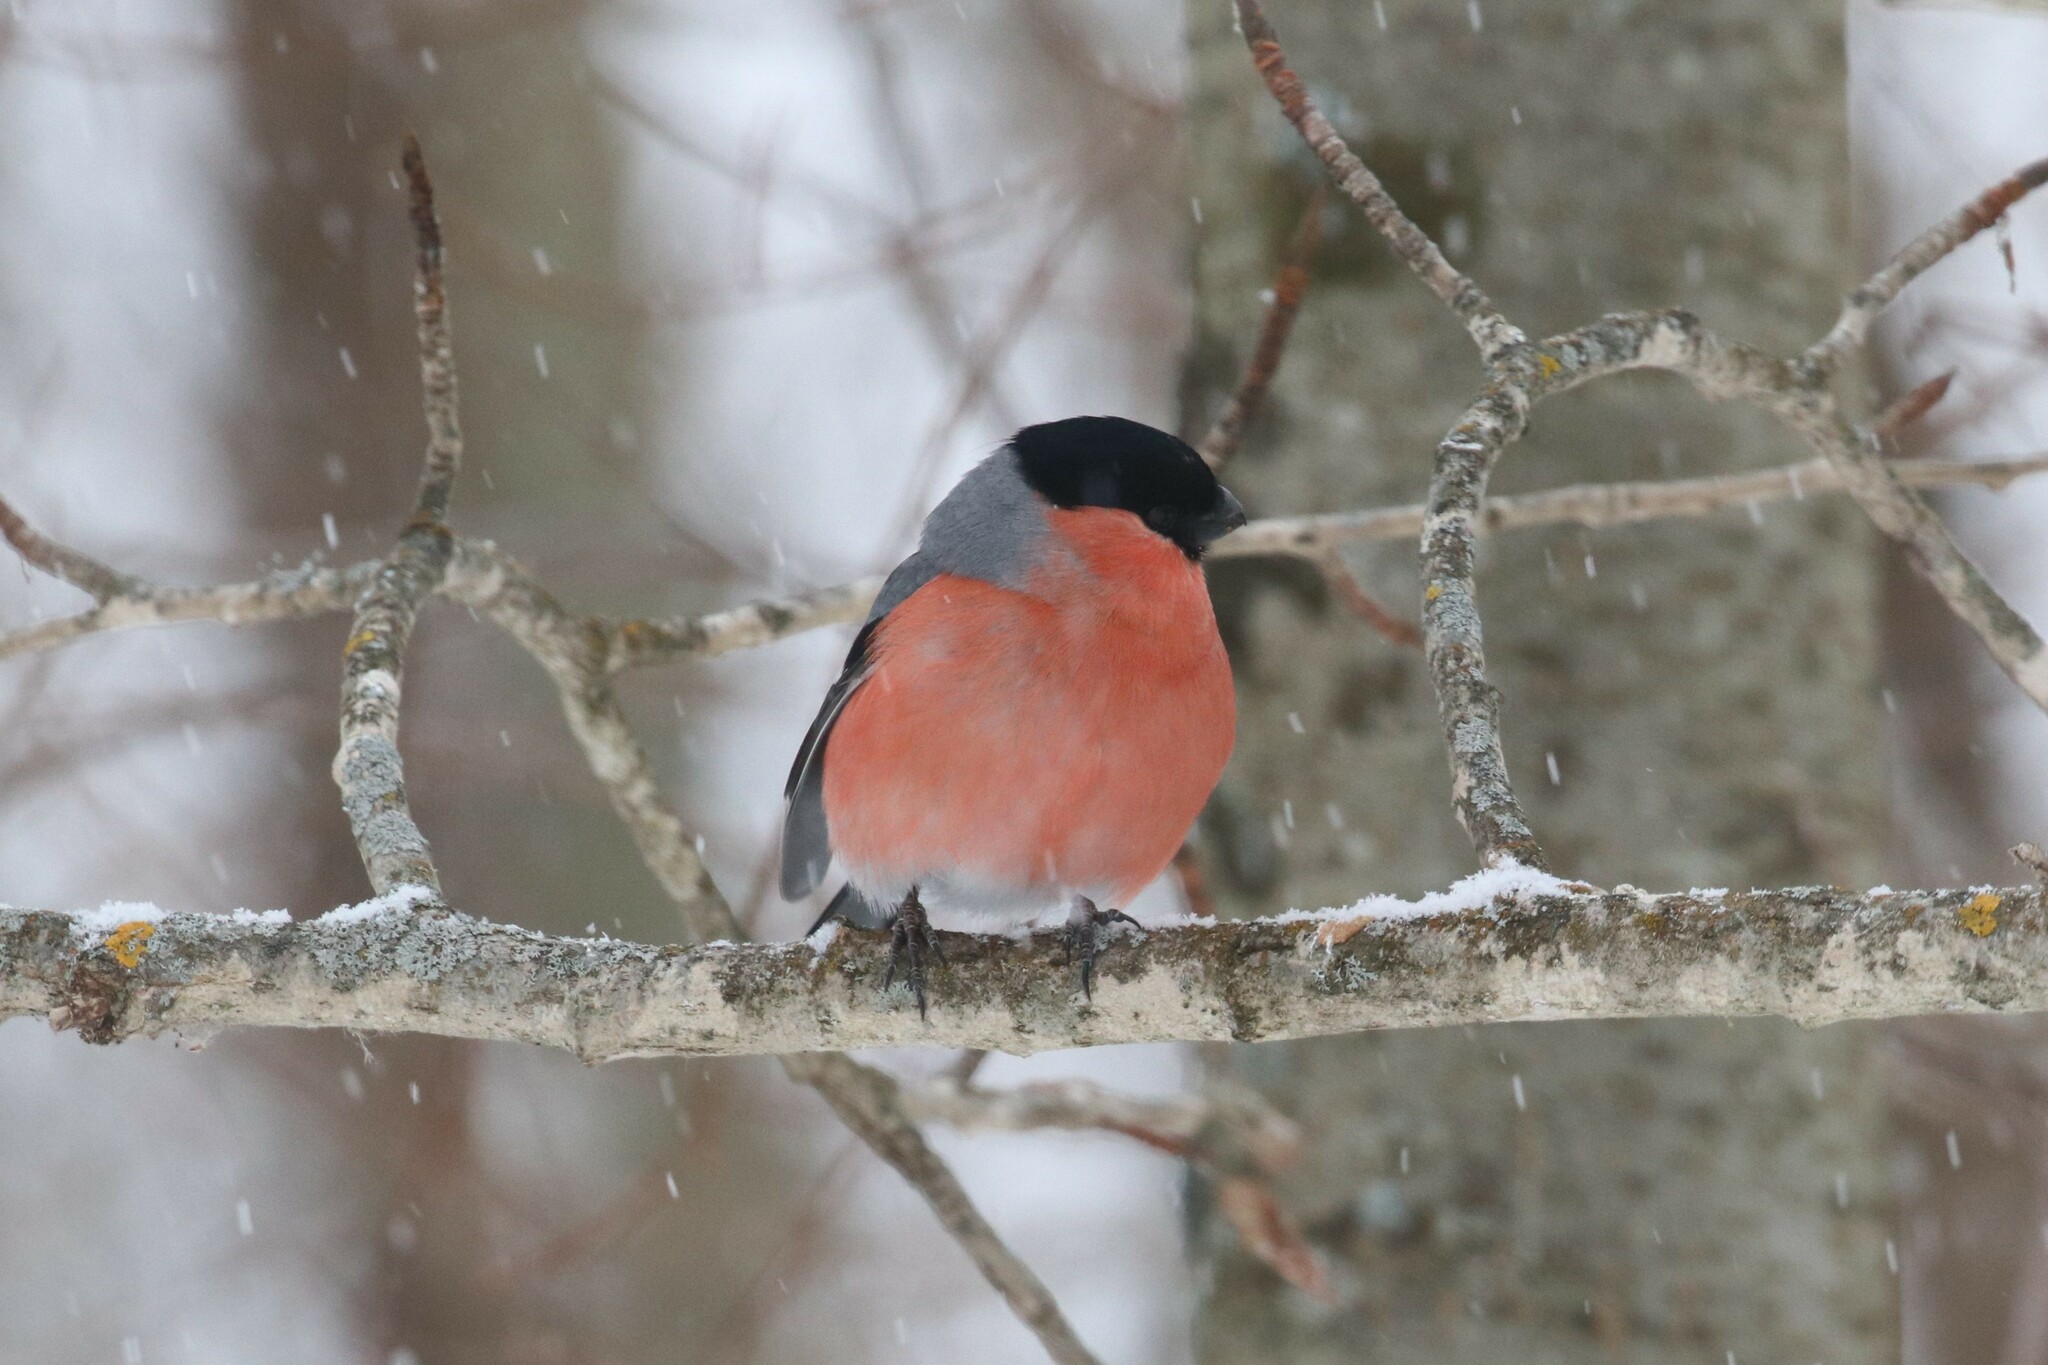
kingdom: Animalia
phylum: Chordata
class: Aves
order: Passeriformes
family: Fringillidae
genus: Pyrrhula
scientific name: Pyrrhula pyrrhula
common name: Eurasian bullfinch
